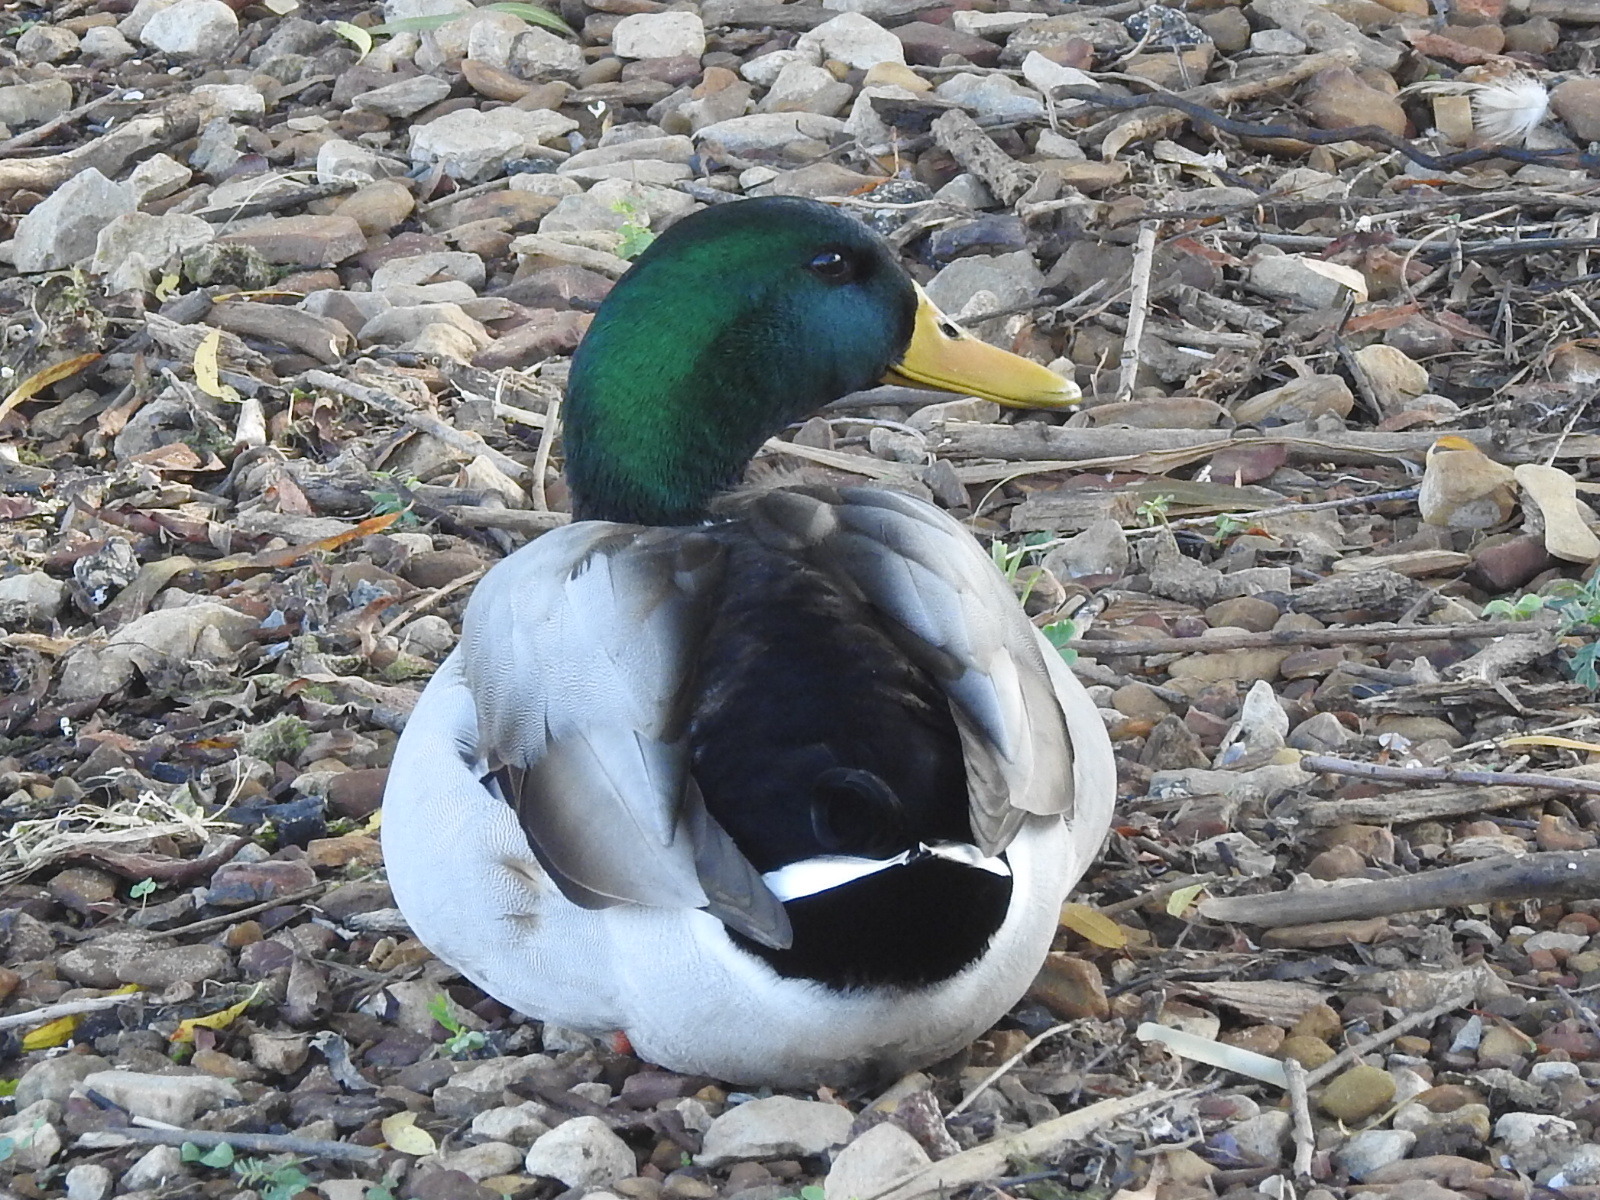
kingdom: Animalia
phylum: Chordata
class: Aves
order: Anseriformes
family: Anatidae
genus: Anas
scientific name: Anas platyrhynchos
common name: Mallard
